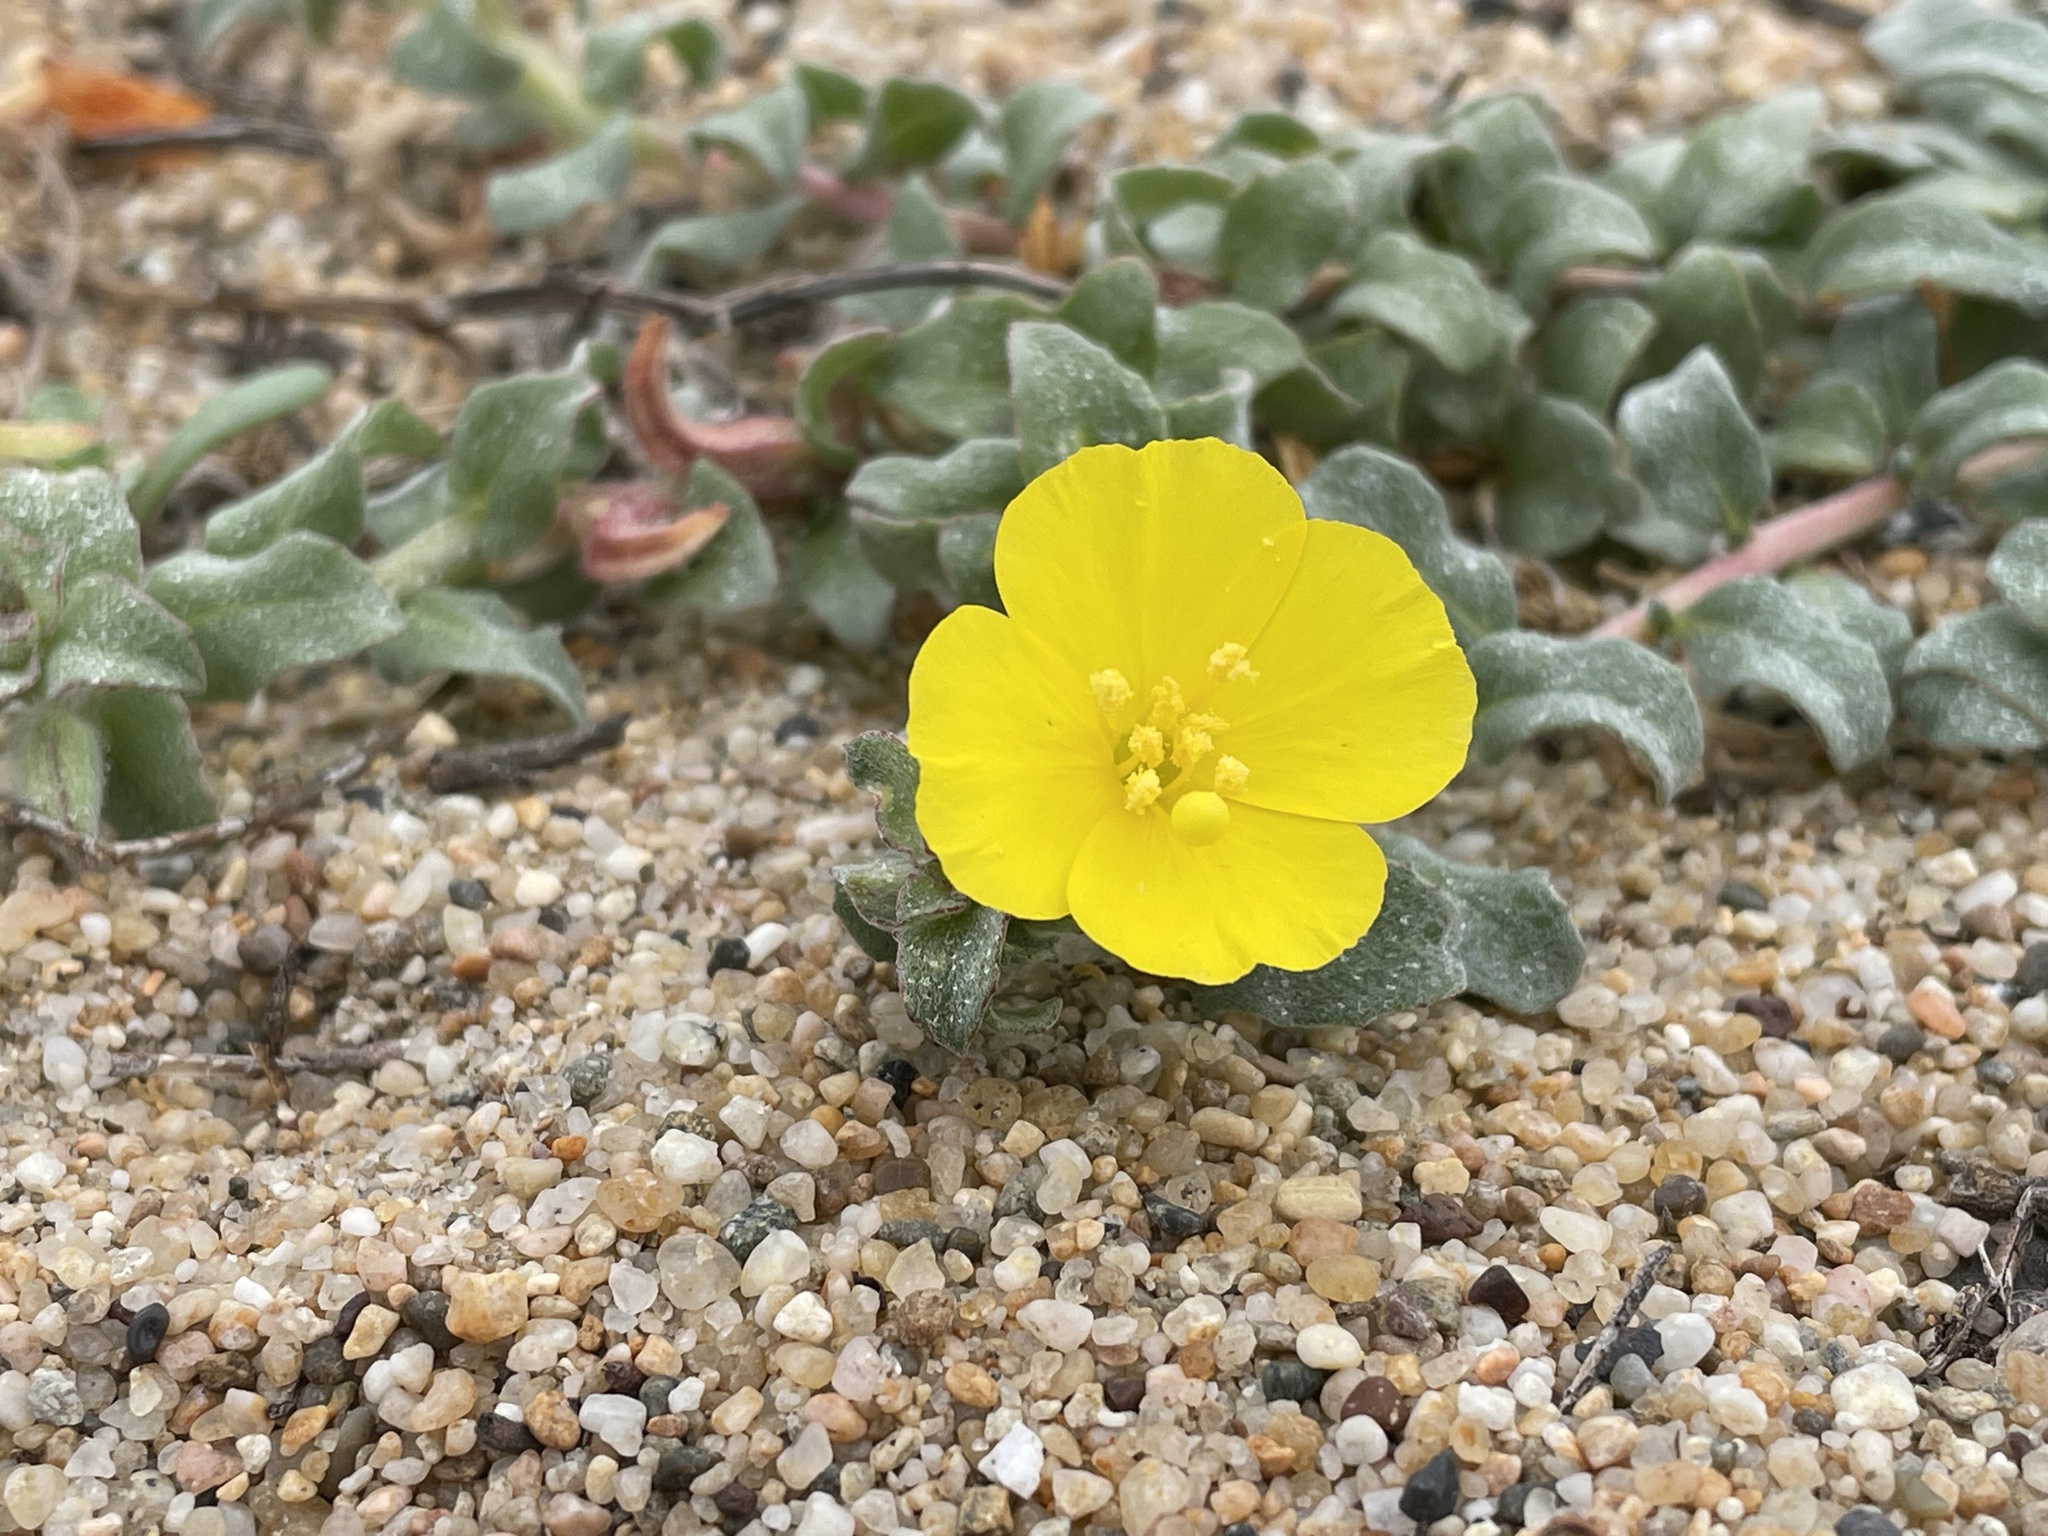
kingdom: Plantae
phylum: Tracheophyta
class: Magnoliopsida
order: Myrtales
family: Onagraceae
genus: Camissoniopsis
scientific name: Camissoniopsis cheiranthifolia
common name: Beach suncup
